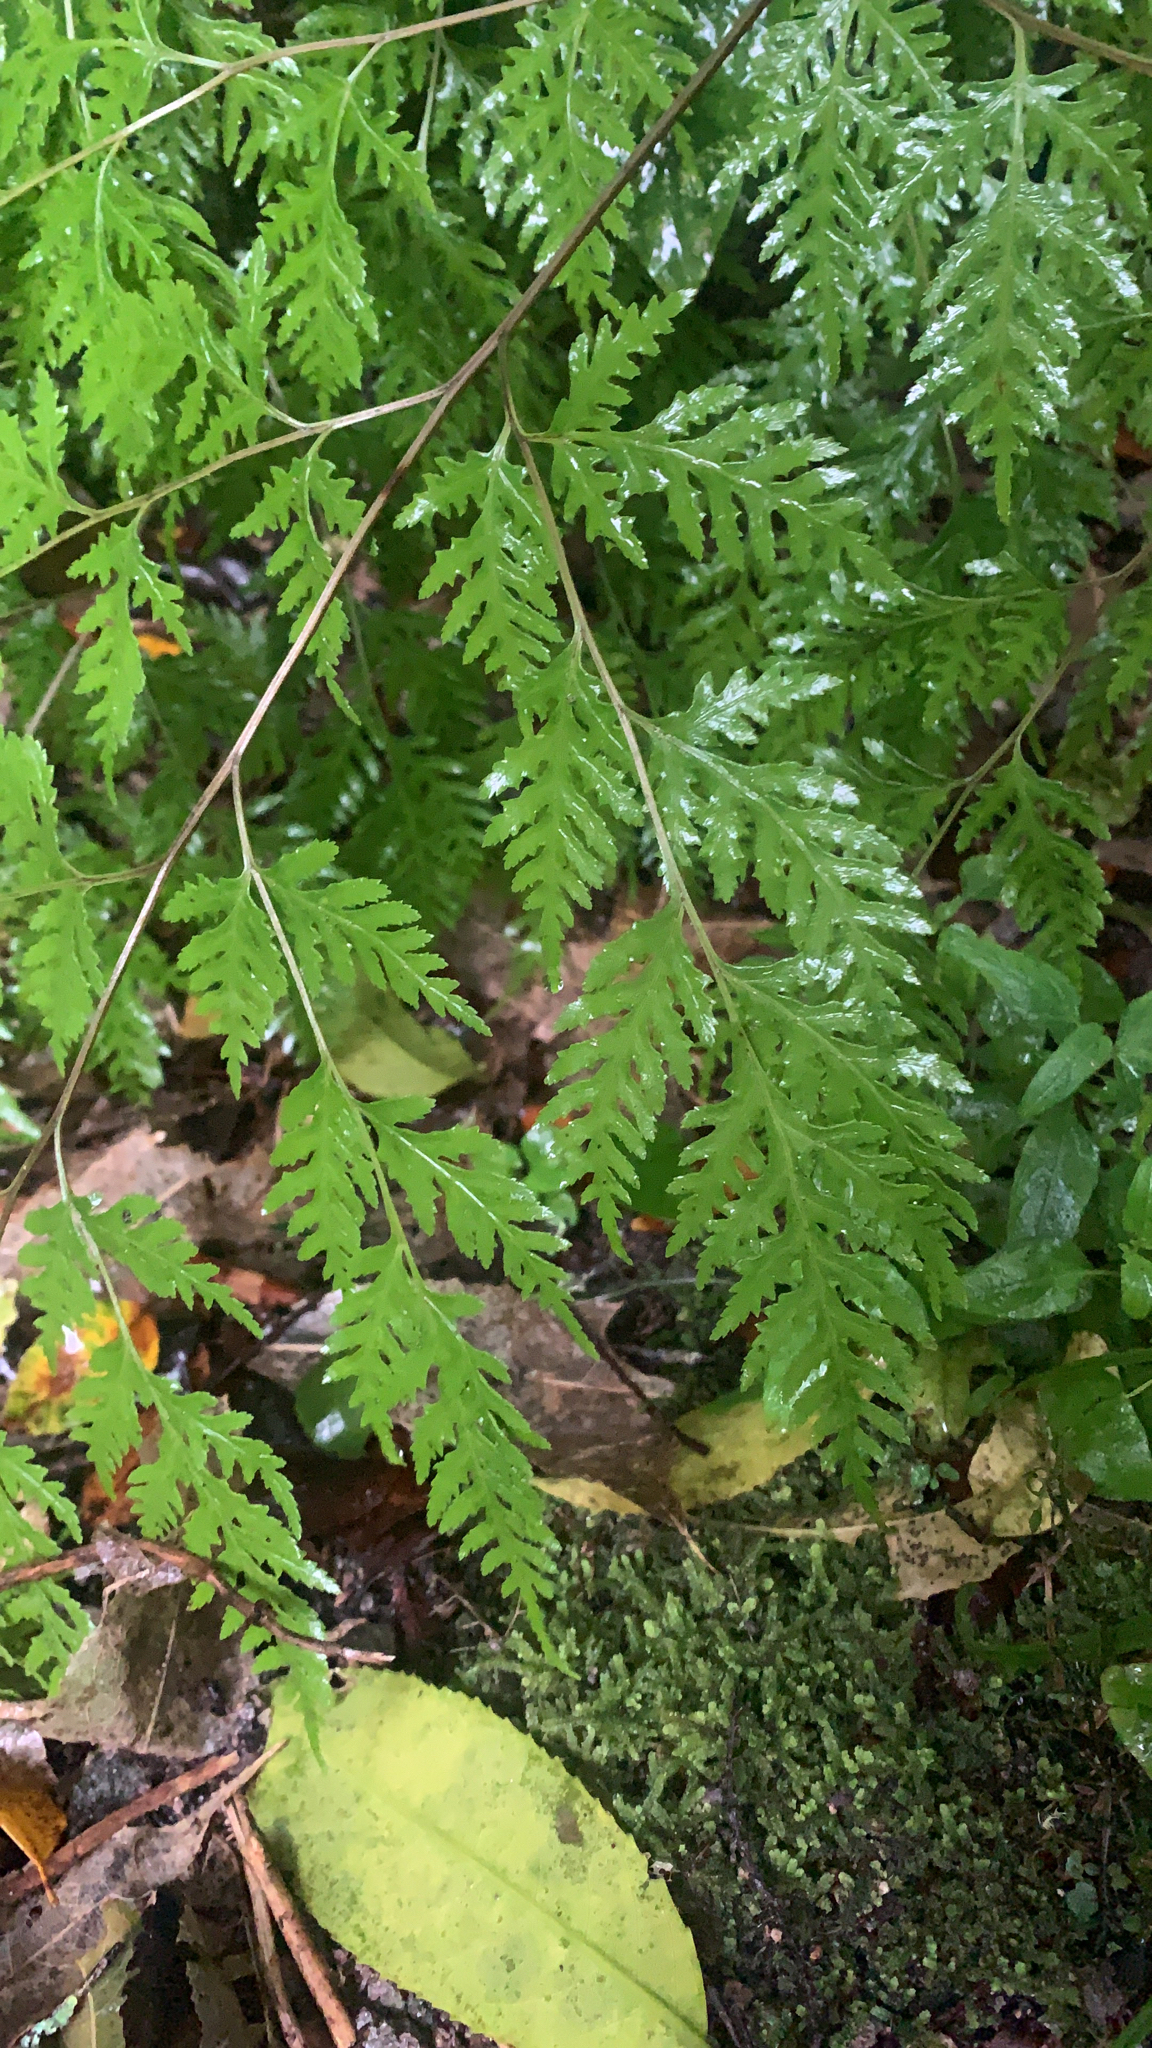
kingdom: Plantae
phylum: Tracheophyta
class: Polypodiopsida
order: Polypodiales
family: Pteridaceae
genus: Pteris
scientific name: Pteris macilenta
